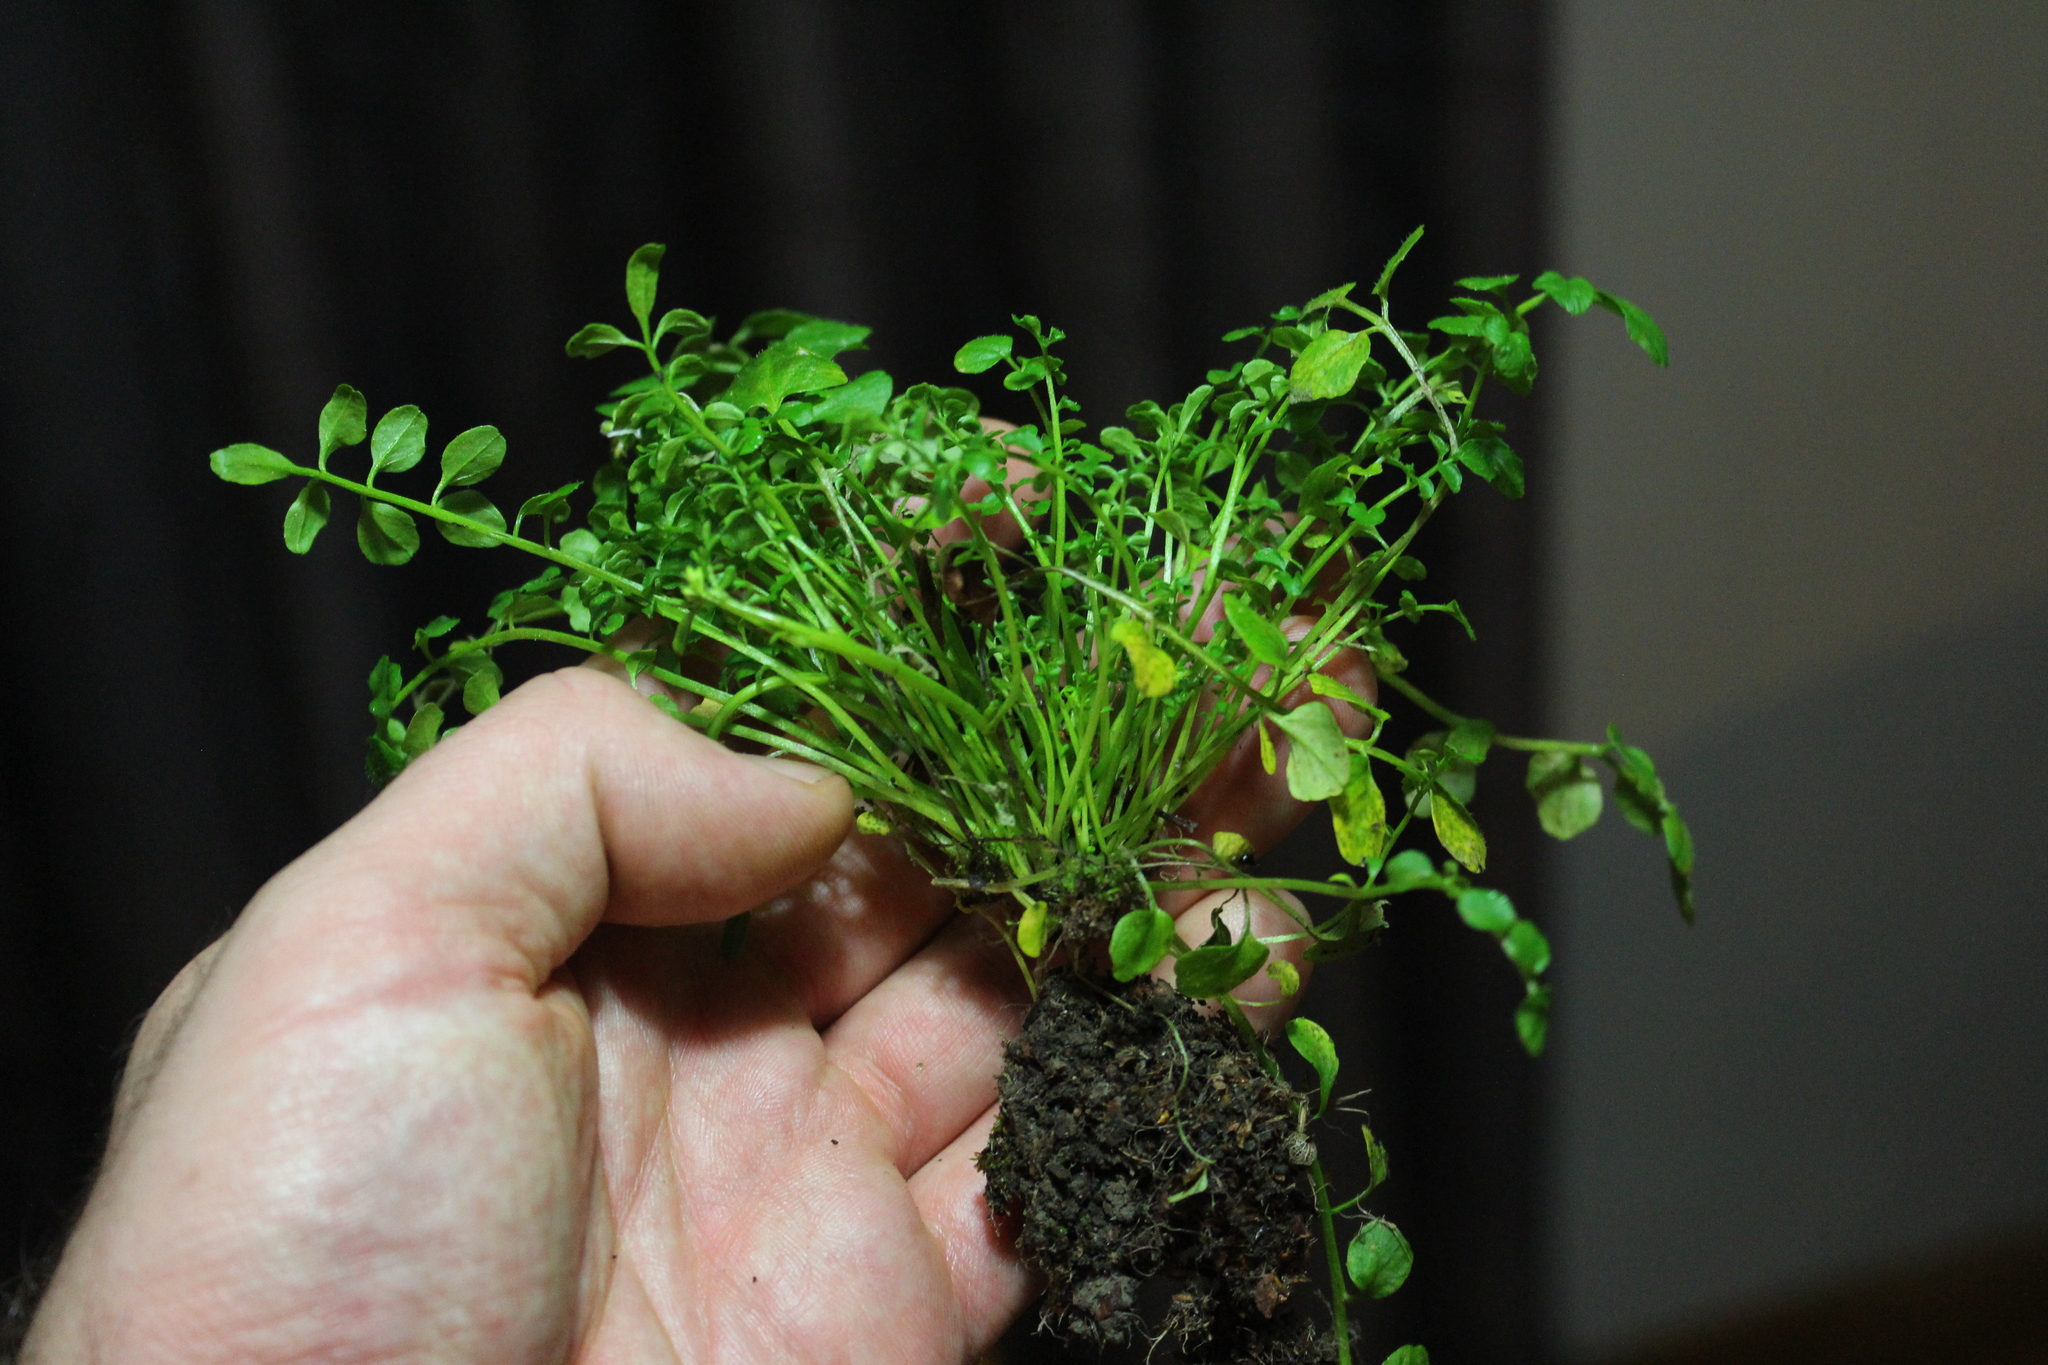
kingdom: Plantae
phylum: Tracheophyta
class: Magnoliopsida
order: Brassicales
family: Brassicaceae
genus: Cardamine
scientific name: Cardamine hirsuta
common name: Hairy bittercress
